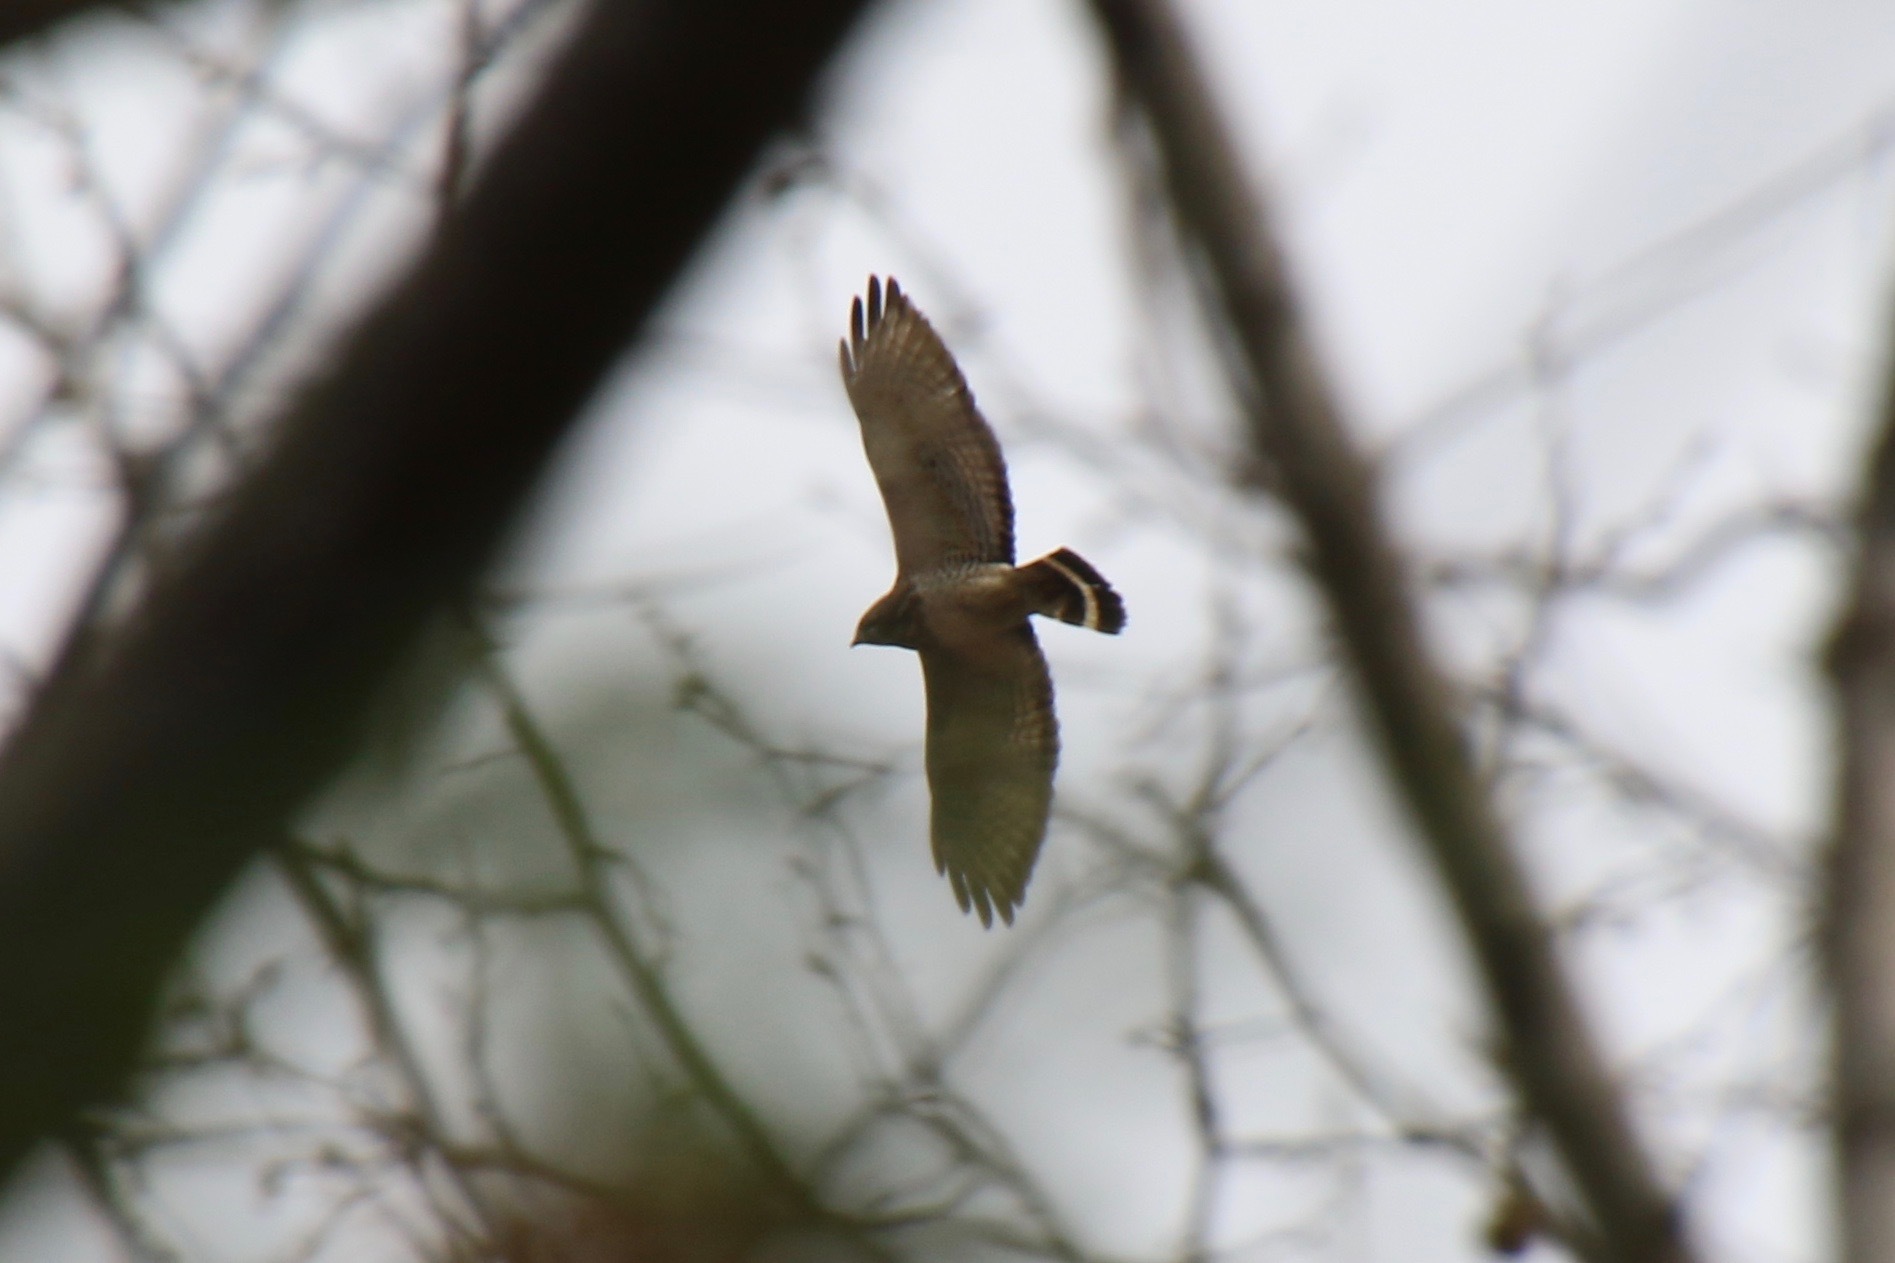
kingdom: Animalia
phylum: Chordata
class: Aves
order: Accipitriformes
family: Accipitridae
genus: Buteo
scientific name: Buteo platypterus
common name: Broad-winged hawk
